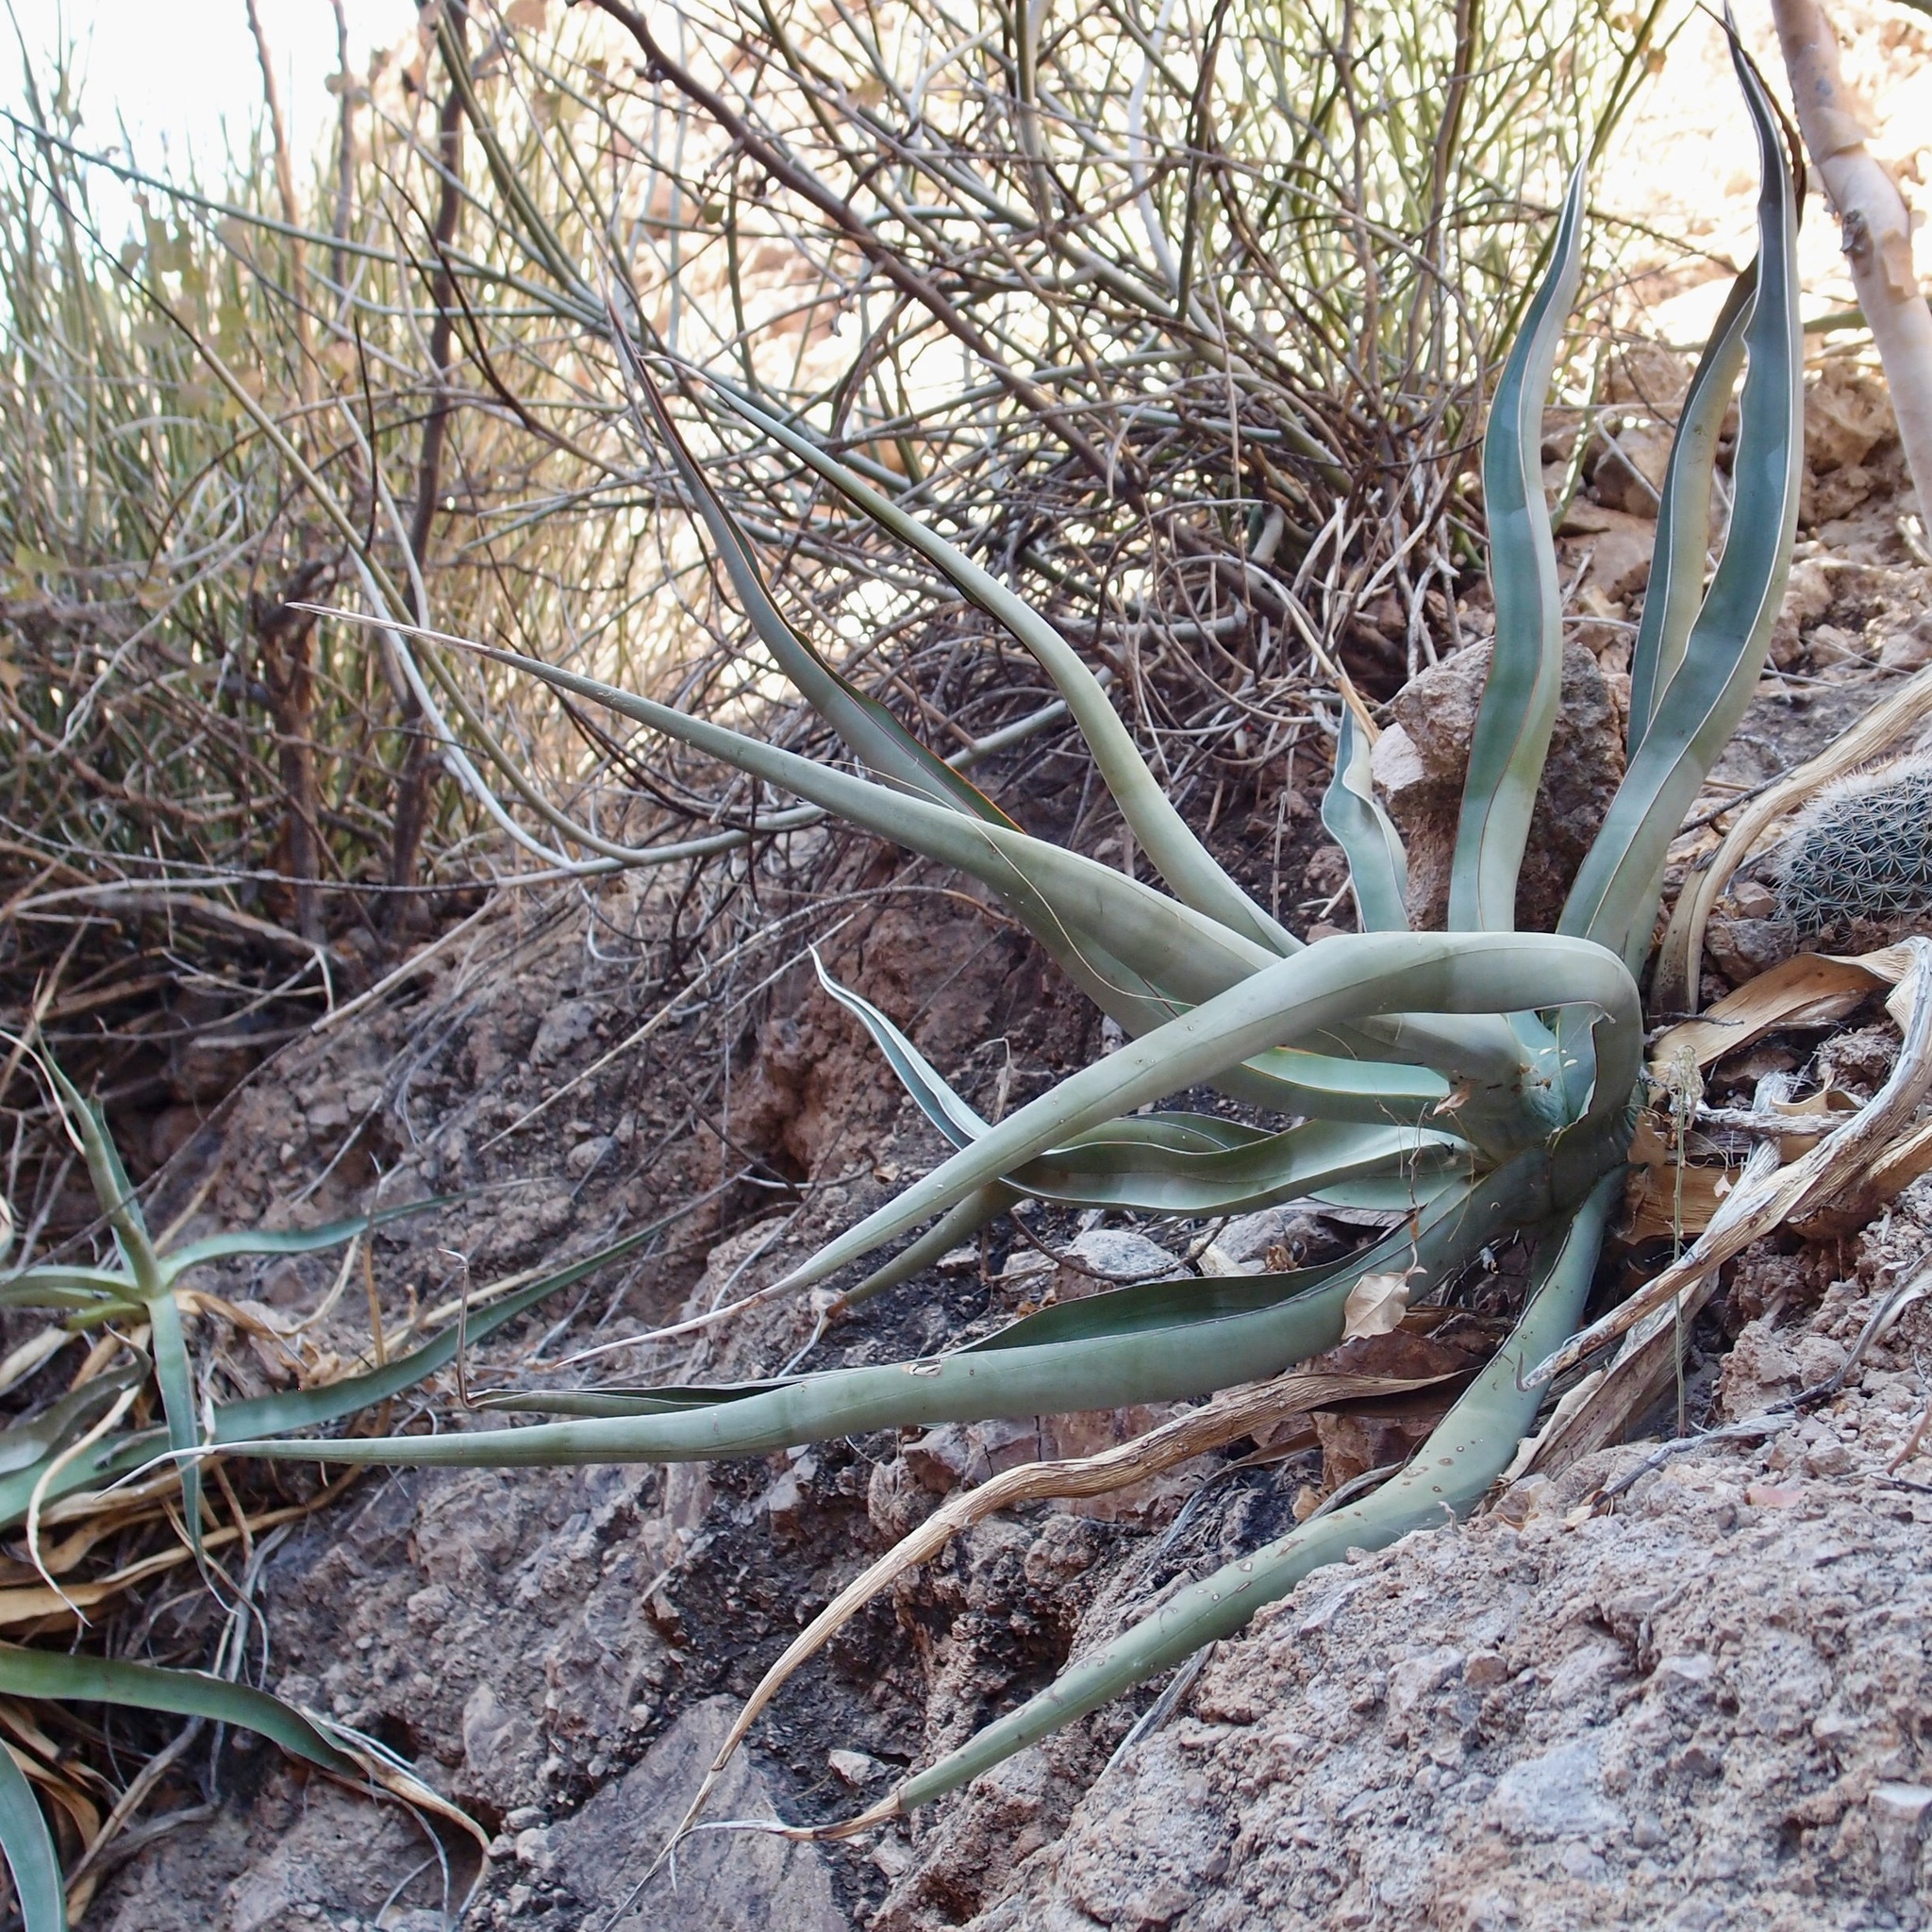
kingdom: Plantae
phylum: Tracheophyta
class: Liliopsida
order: Asparagales
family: Asparagaceae
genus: Agave
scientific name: Agave chrysoglossa
